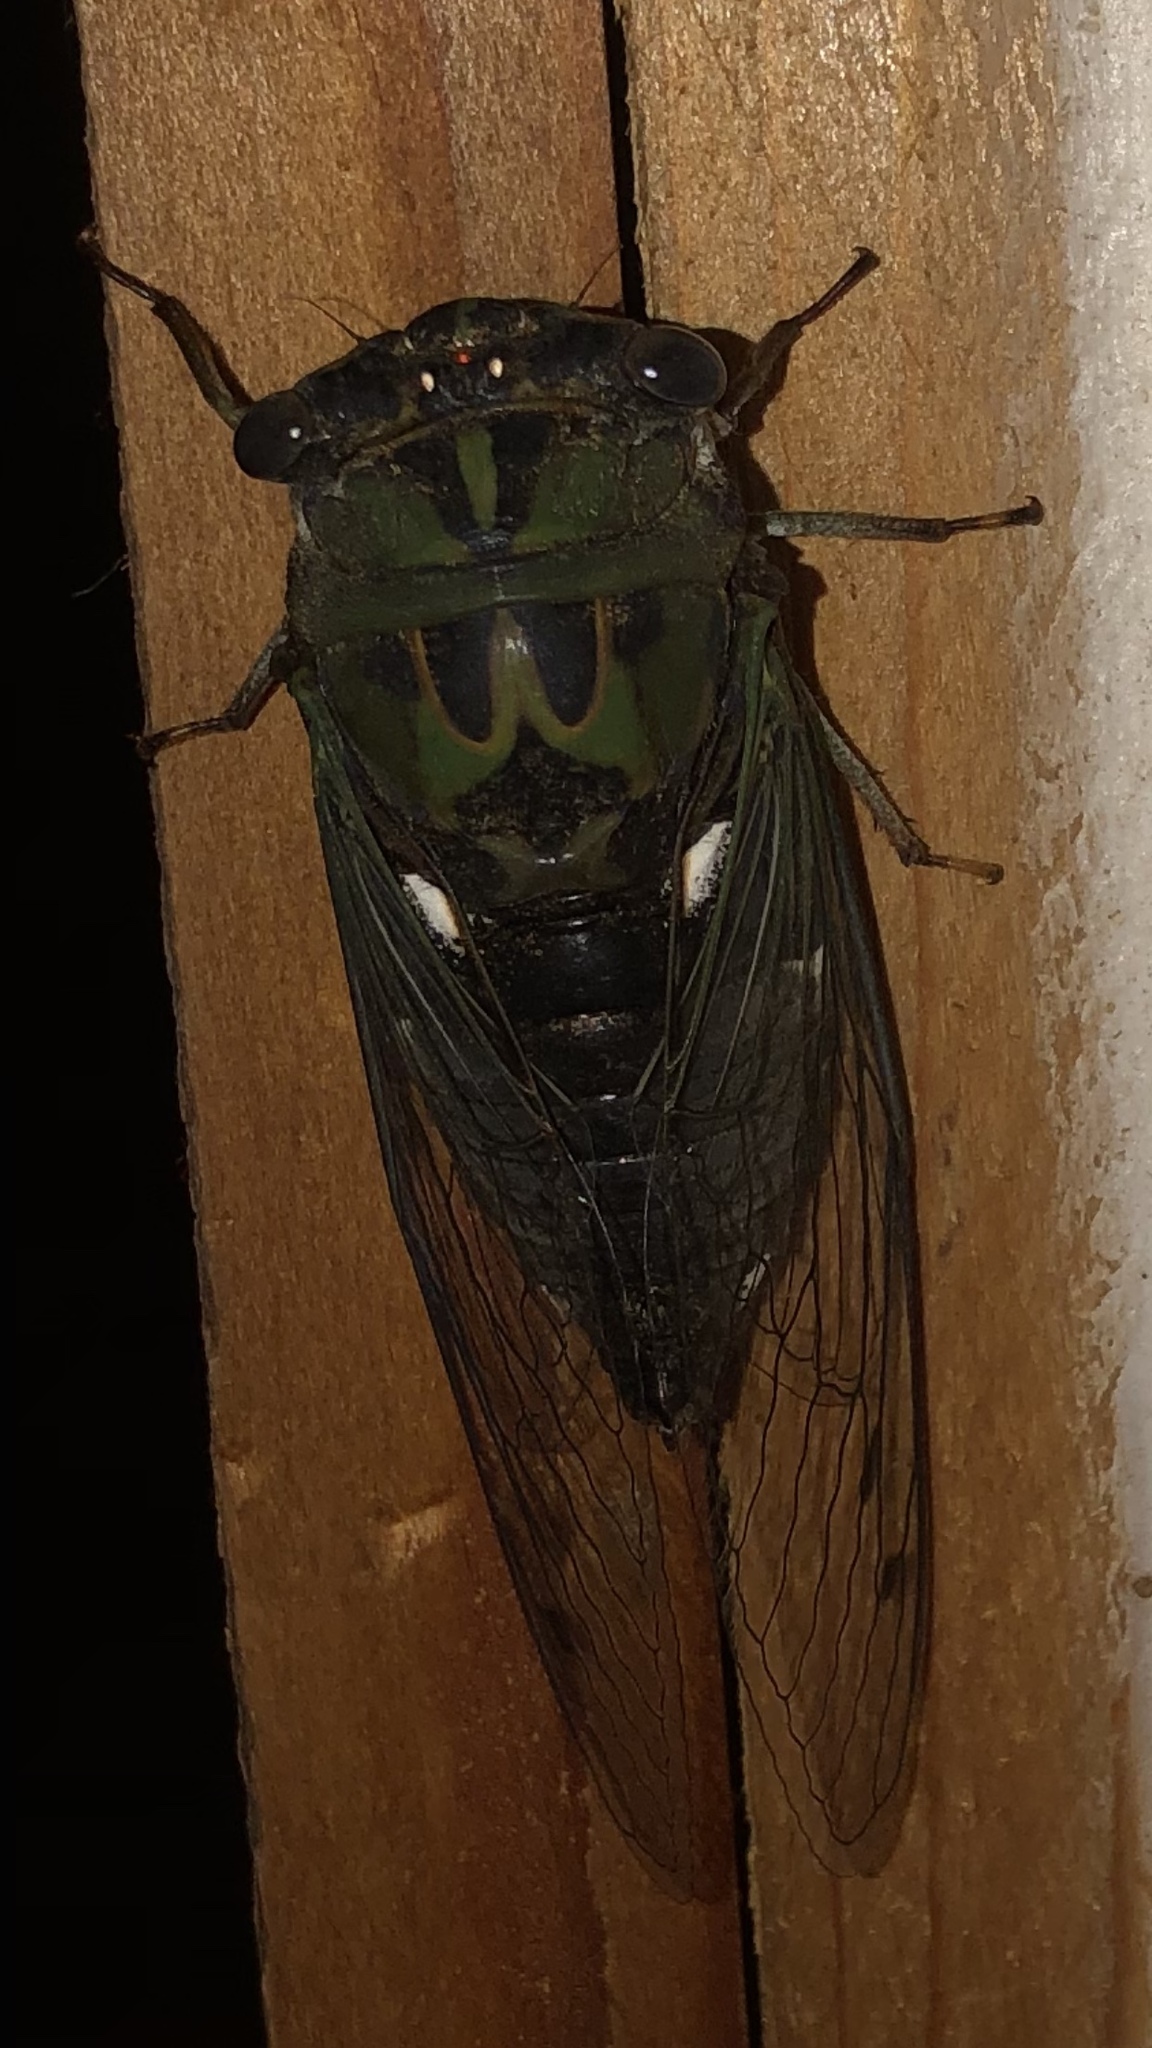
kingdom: Animalia
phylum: Arthropoda
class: Insecta
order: Hemiptera
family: Cicadidae
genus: Neotibicen
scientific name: Neotibicen pruinosus
